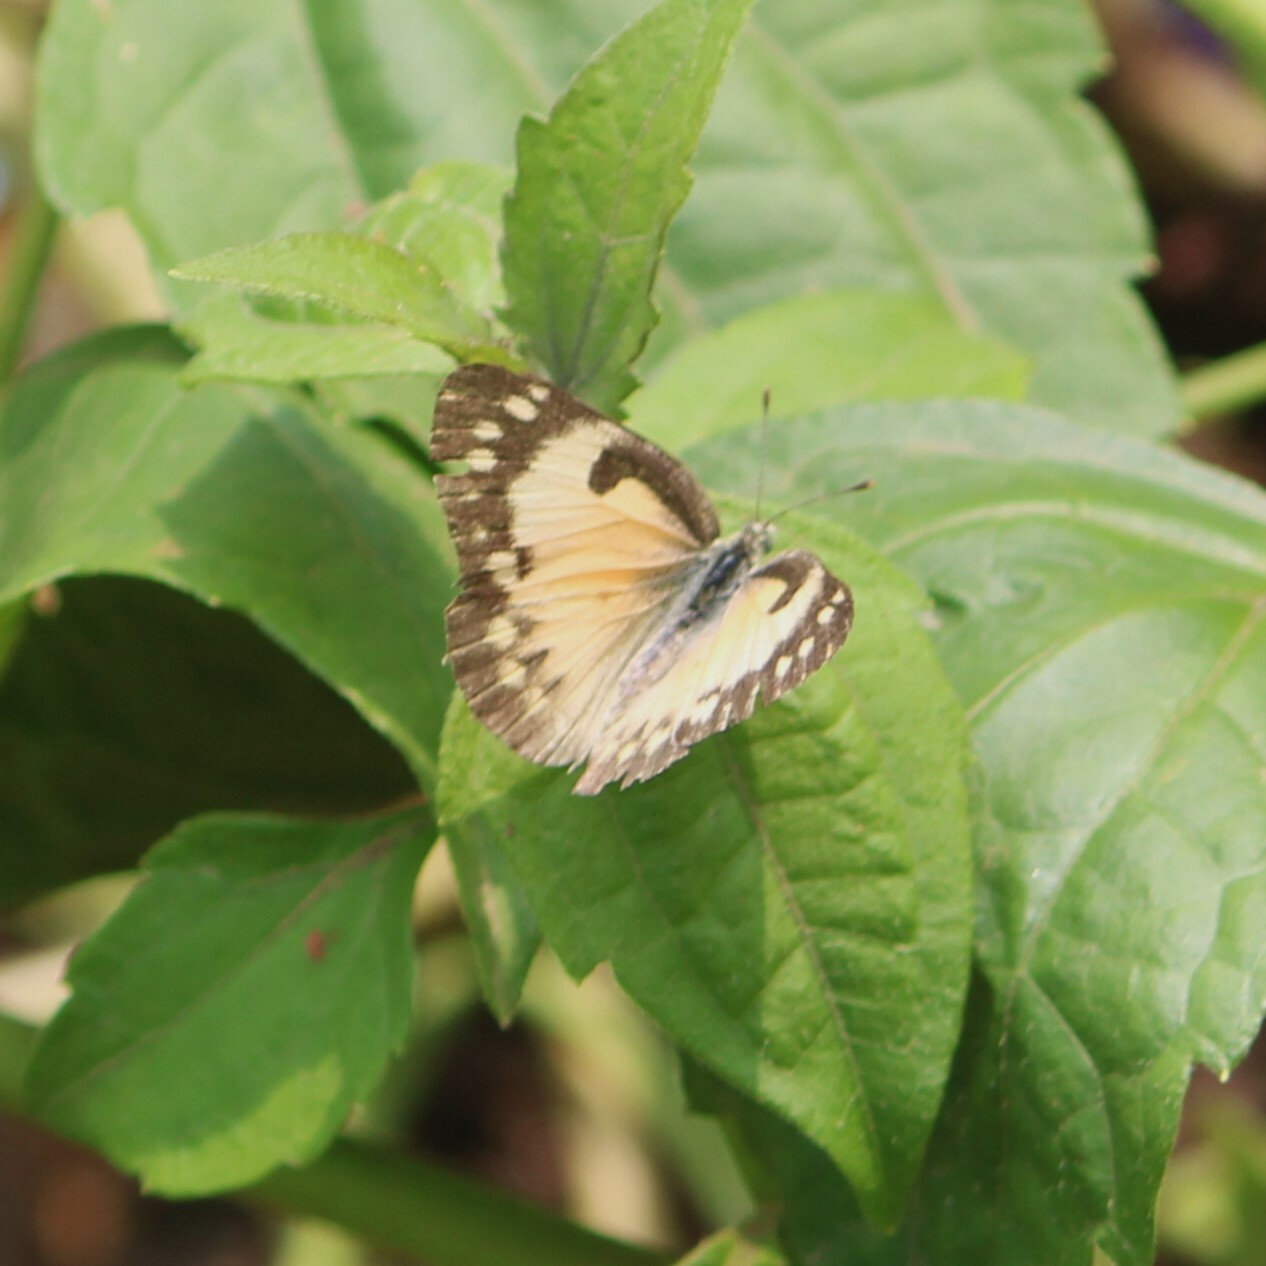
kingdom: Animalia
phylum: Arthropoda
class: Insecta
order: Lepidoptera
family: Pieridae
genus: Colotis
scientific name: Colotis amata
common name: Small salmon arab
